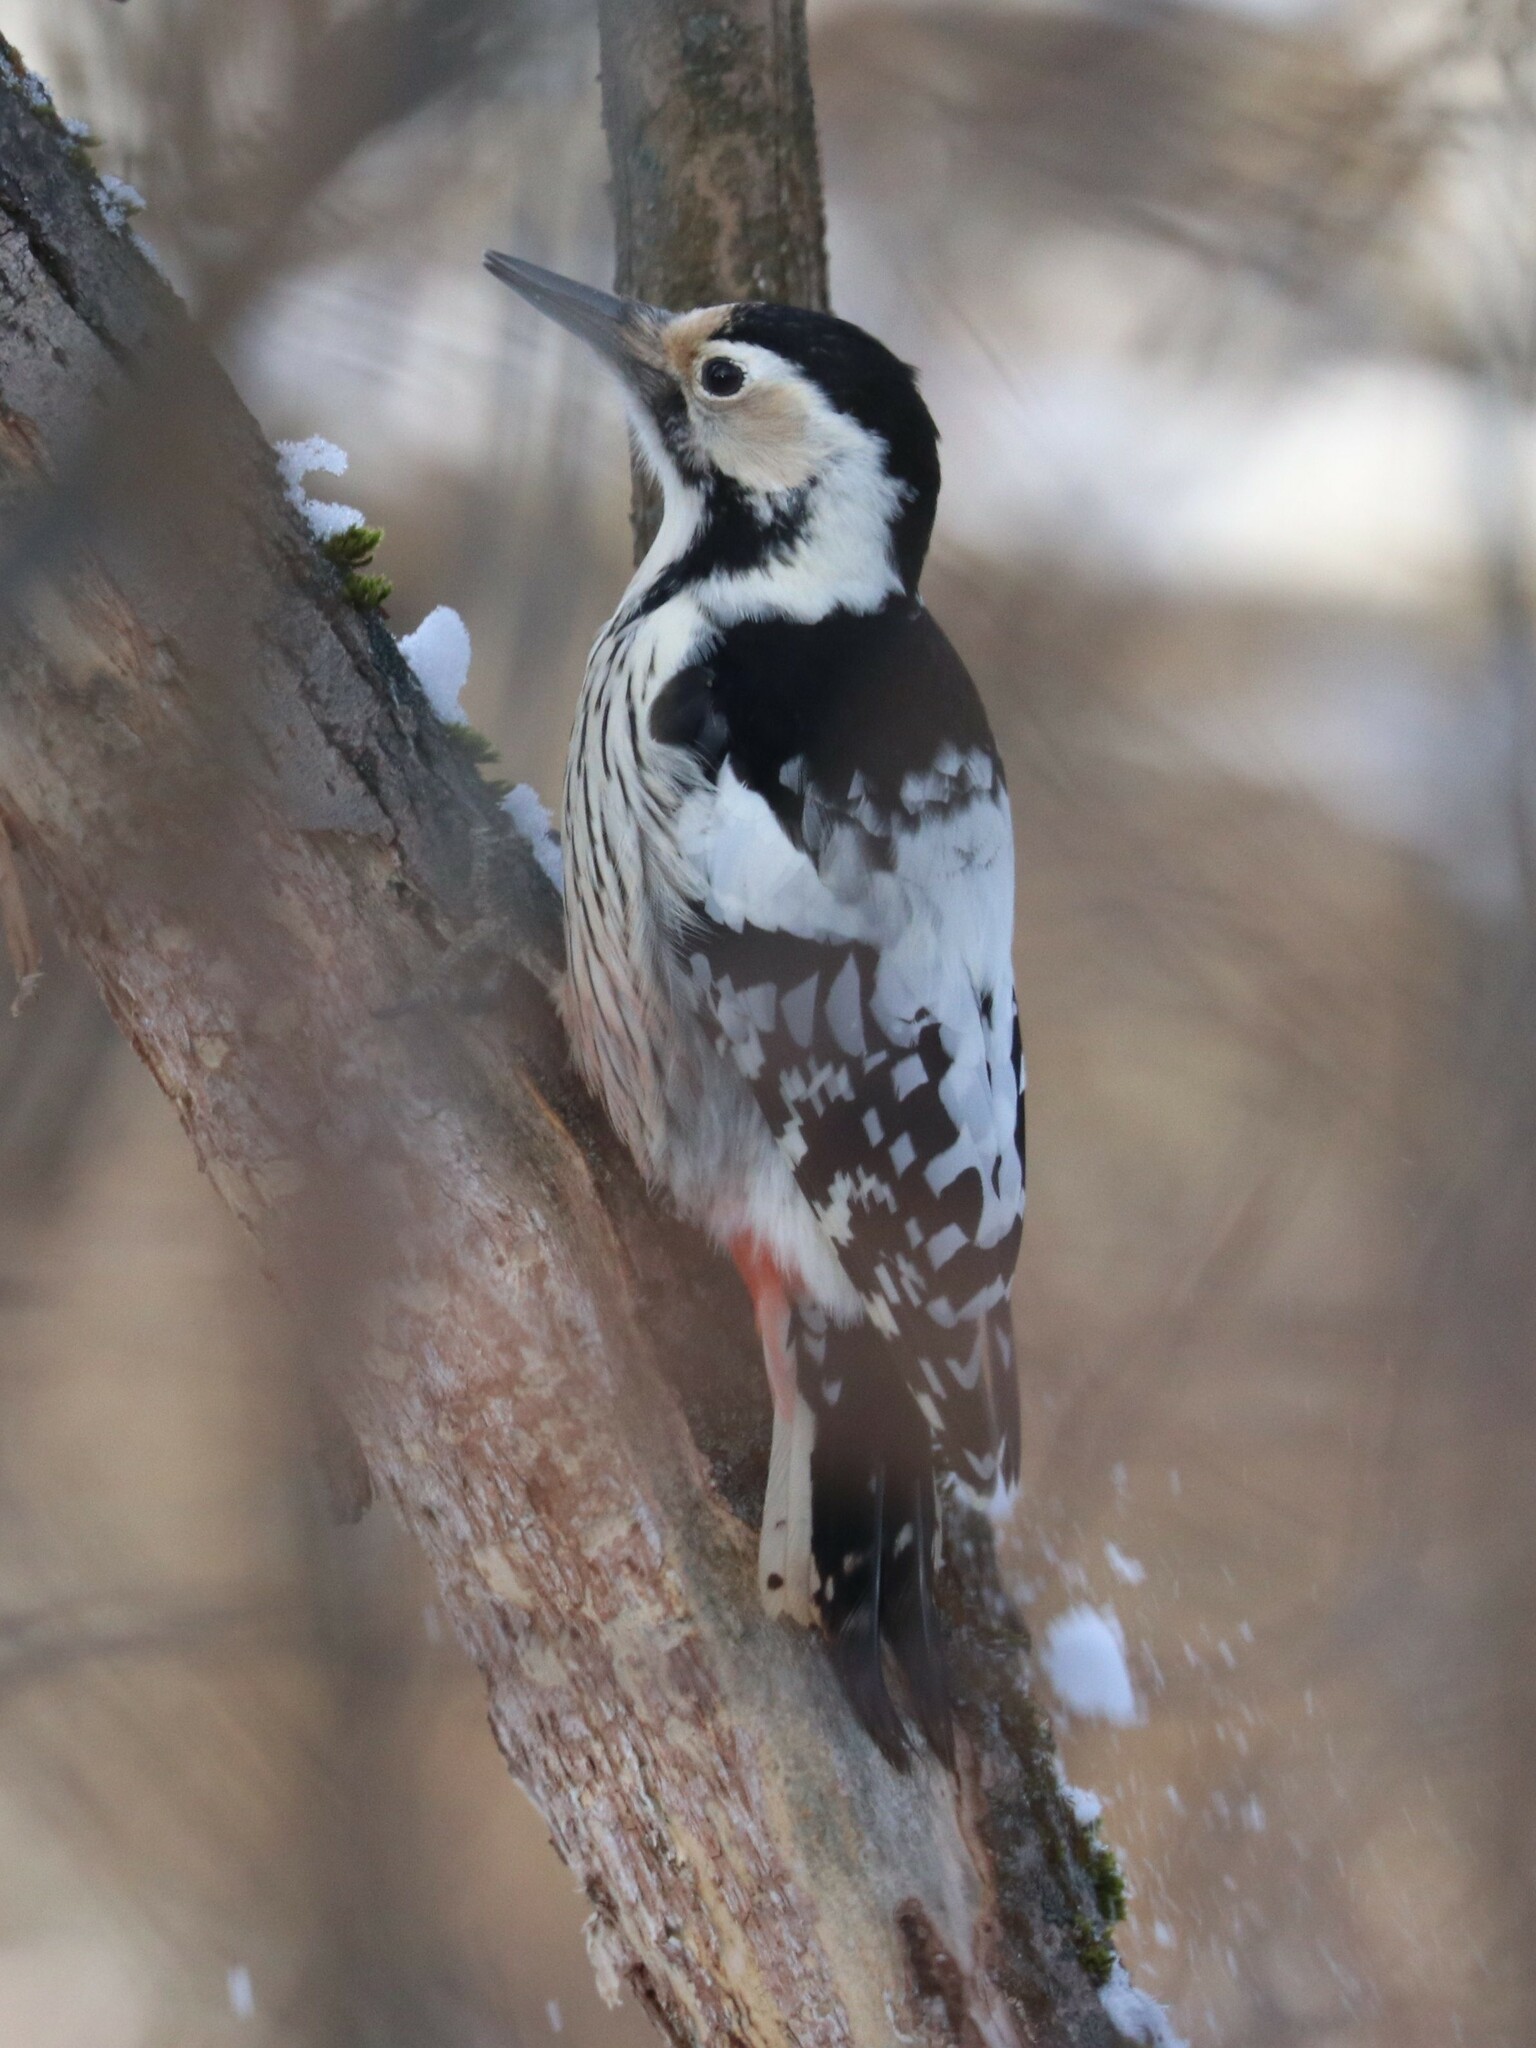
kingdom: Animalia
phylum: Chordata
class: Aves
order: Piciformes
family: Picidae
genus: Dendrocopos
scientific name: Dendrocopos leucotos
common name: White-backed woodpecker
